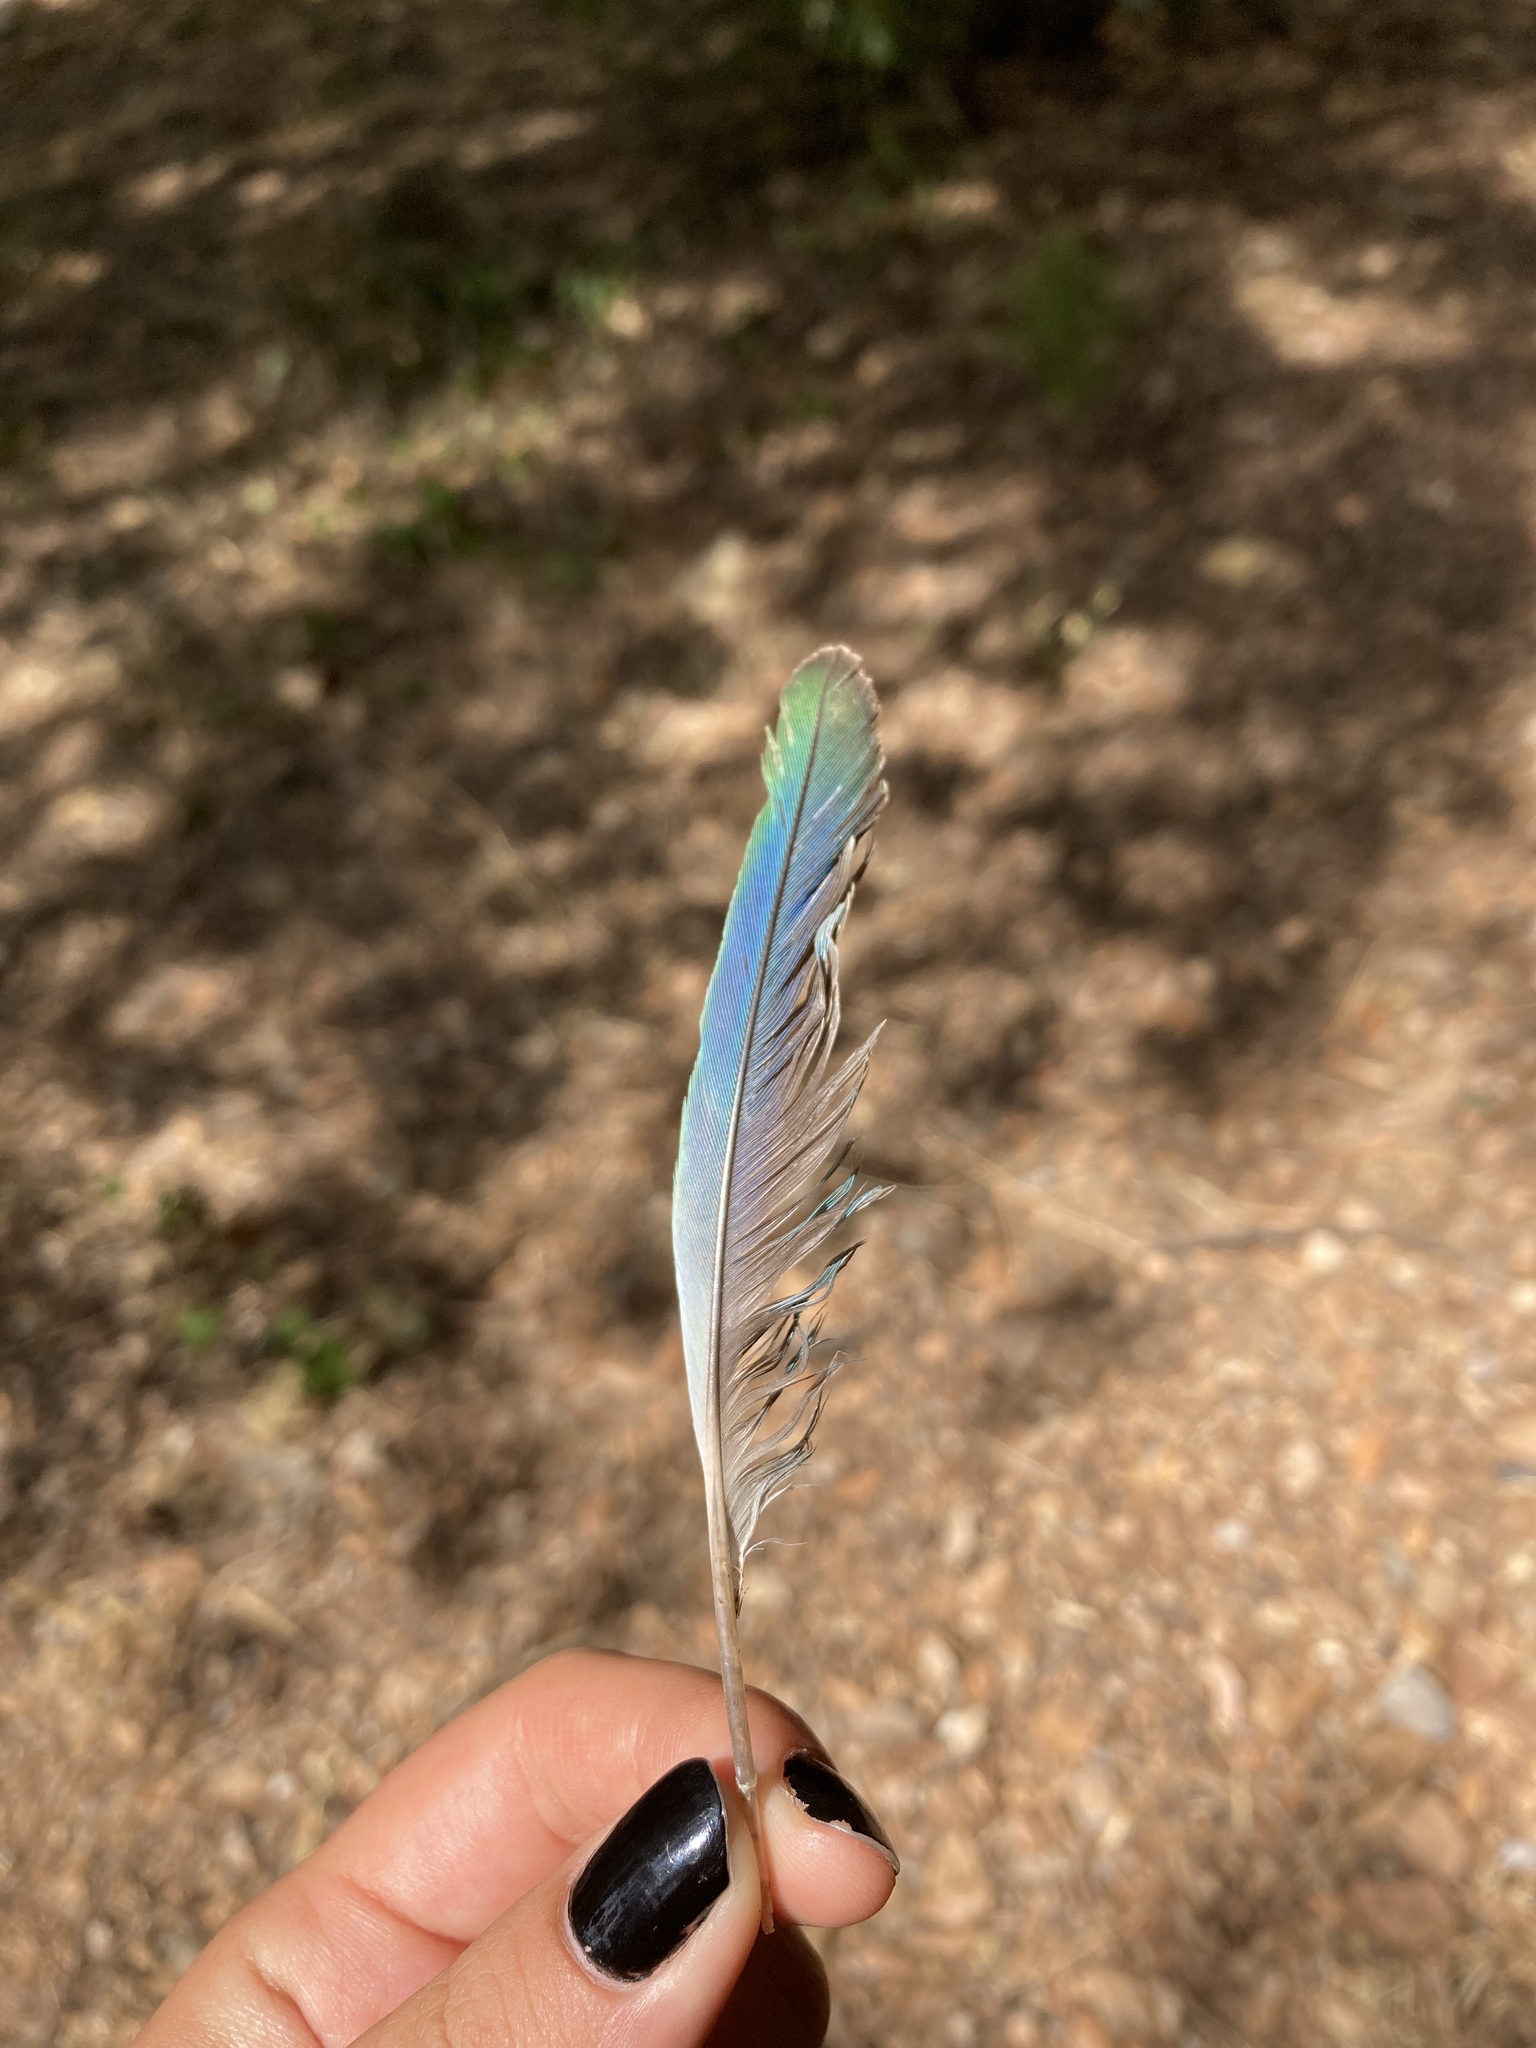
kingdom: Animalia
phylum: Chordata
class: Aves
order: Psittaciformes
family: Psittacidae
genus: Myiopsitta
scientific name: Myiopsitta monachus
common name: Monk parakeet
